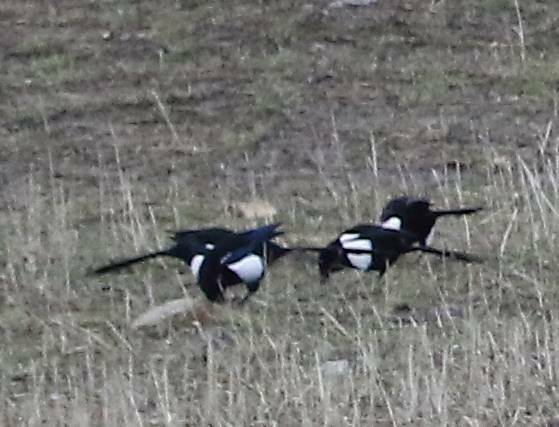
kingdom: Animalia
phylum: Chordata
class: Aves
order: Passeriformes
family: Corvidae
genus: Pica
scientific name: Pica mauritanica
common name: Maghreb magpie
